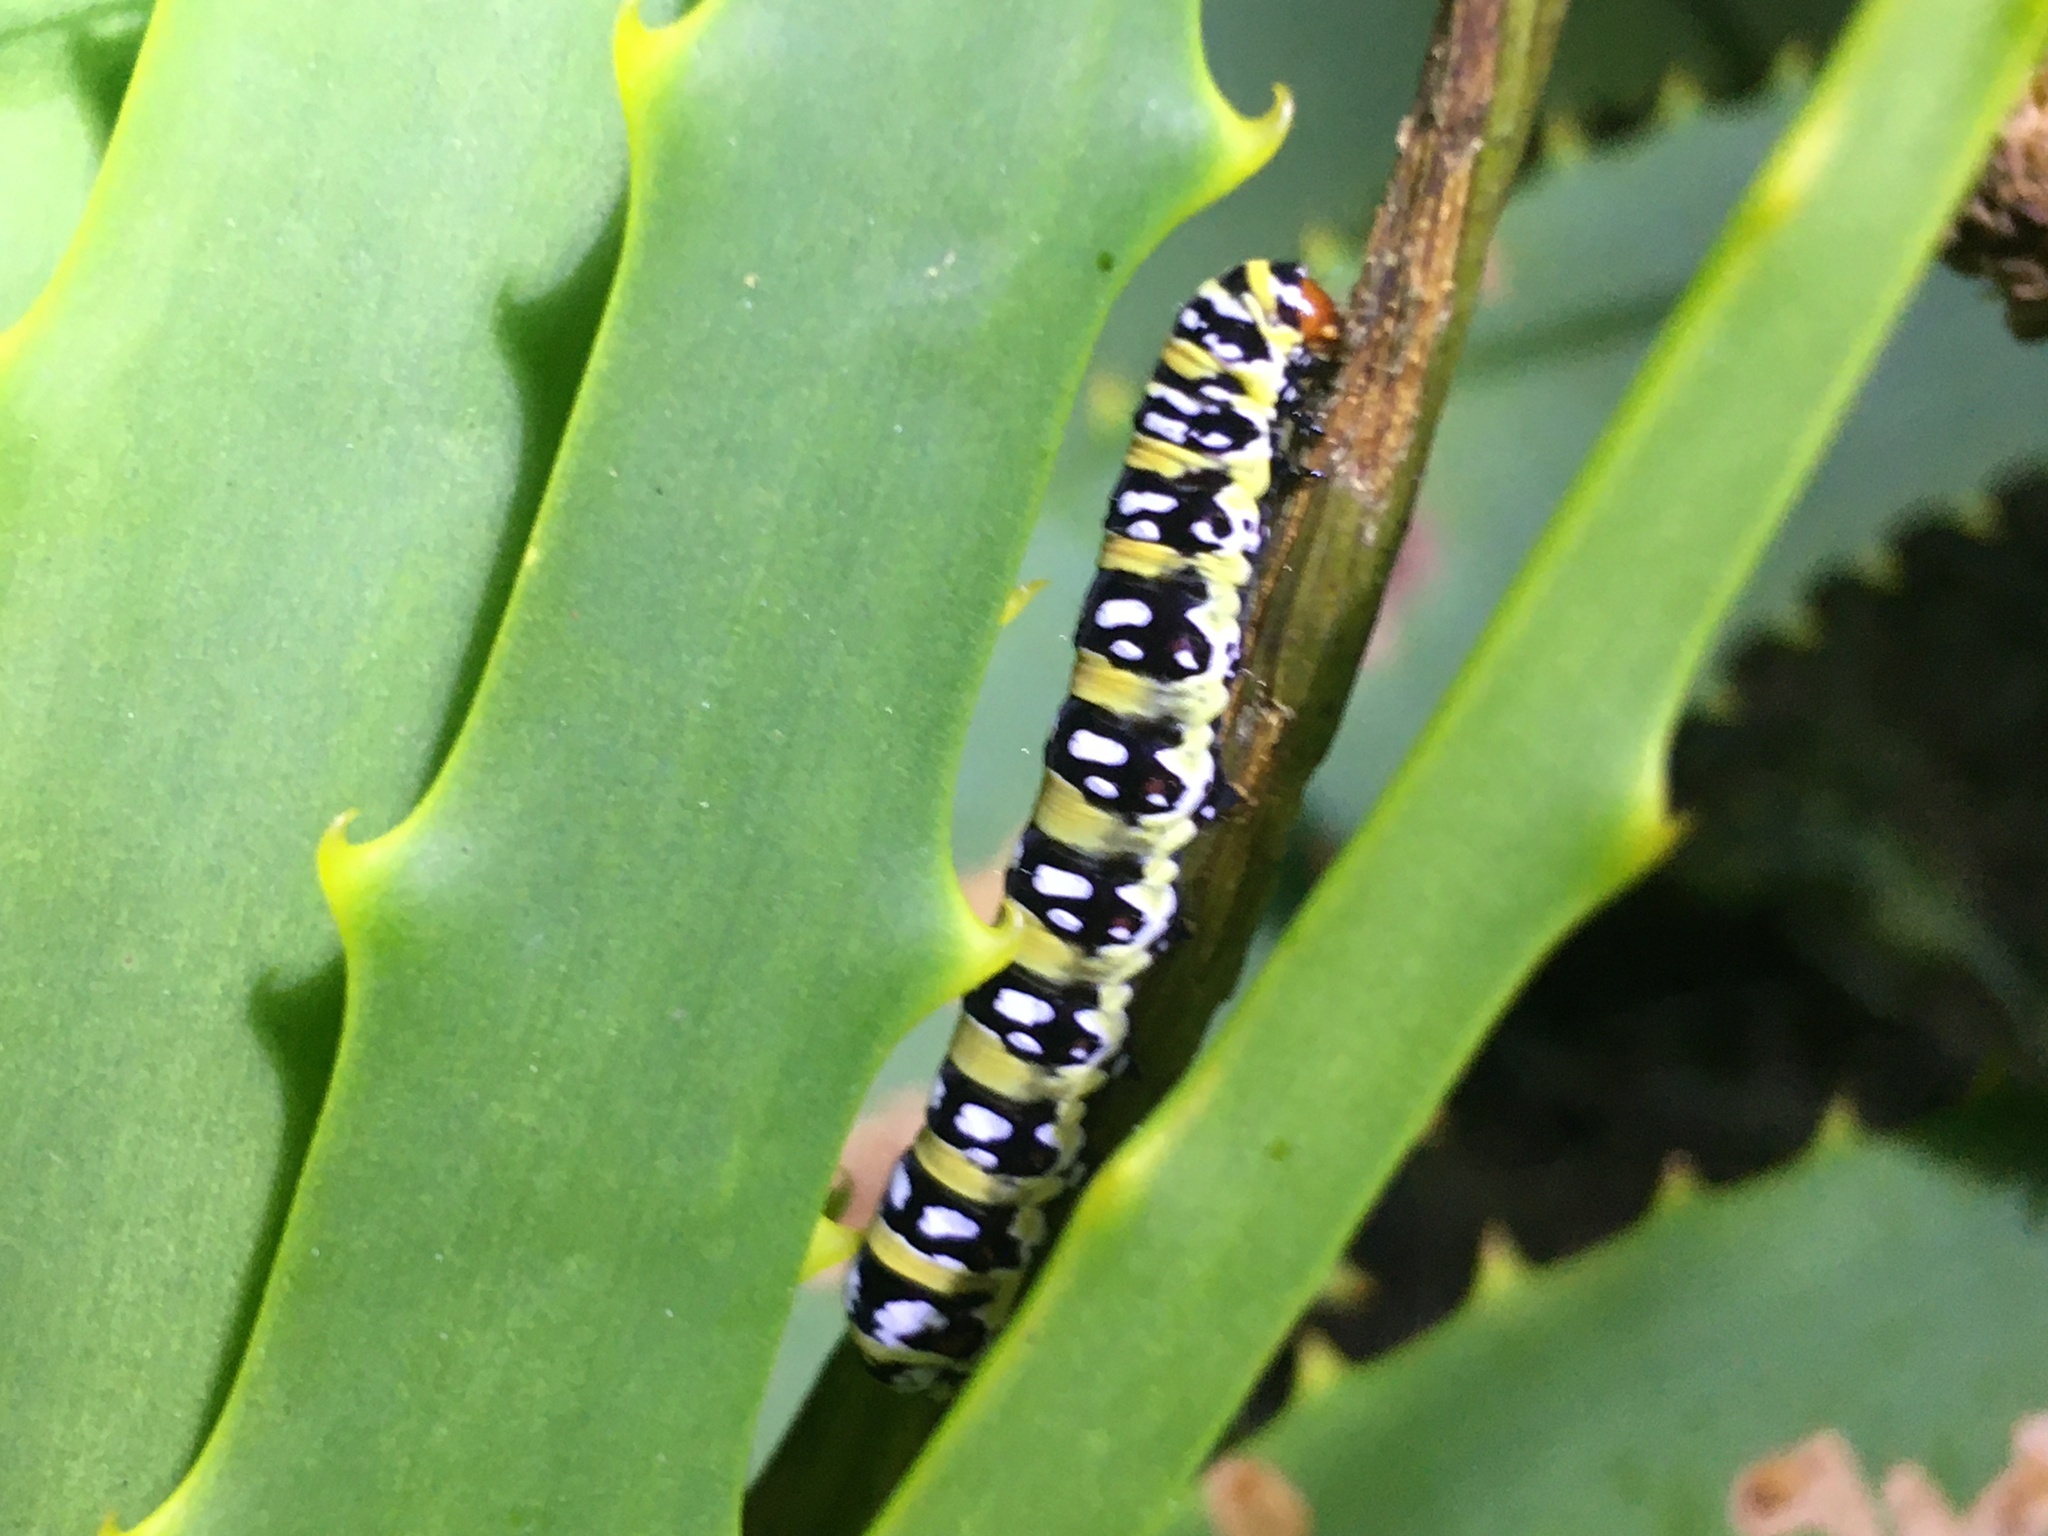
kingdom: Animalia
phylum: Arthropoda
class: Insecta
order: Lepidoptera
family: Noctuidae
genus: Klugeana
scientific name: Klugeana philoxalis
